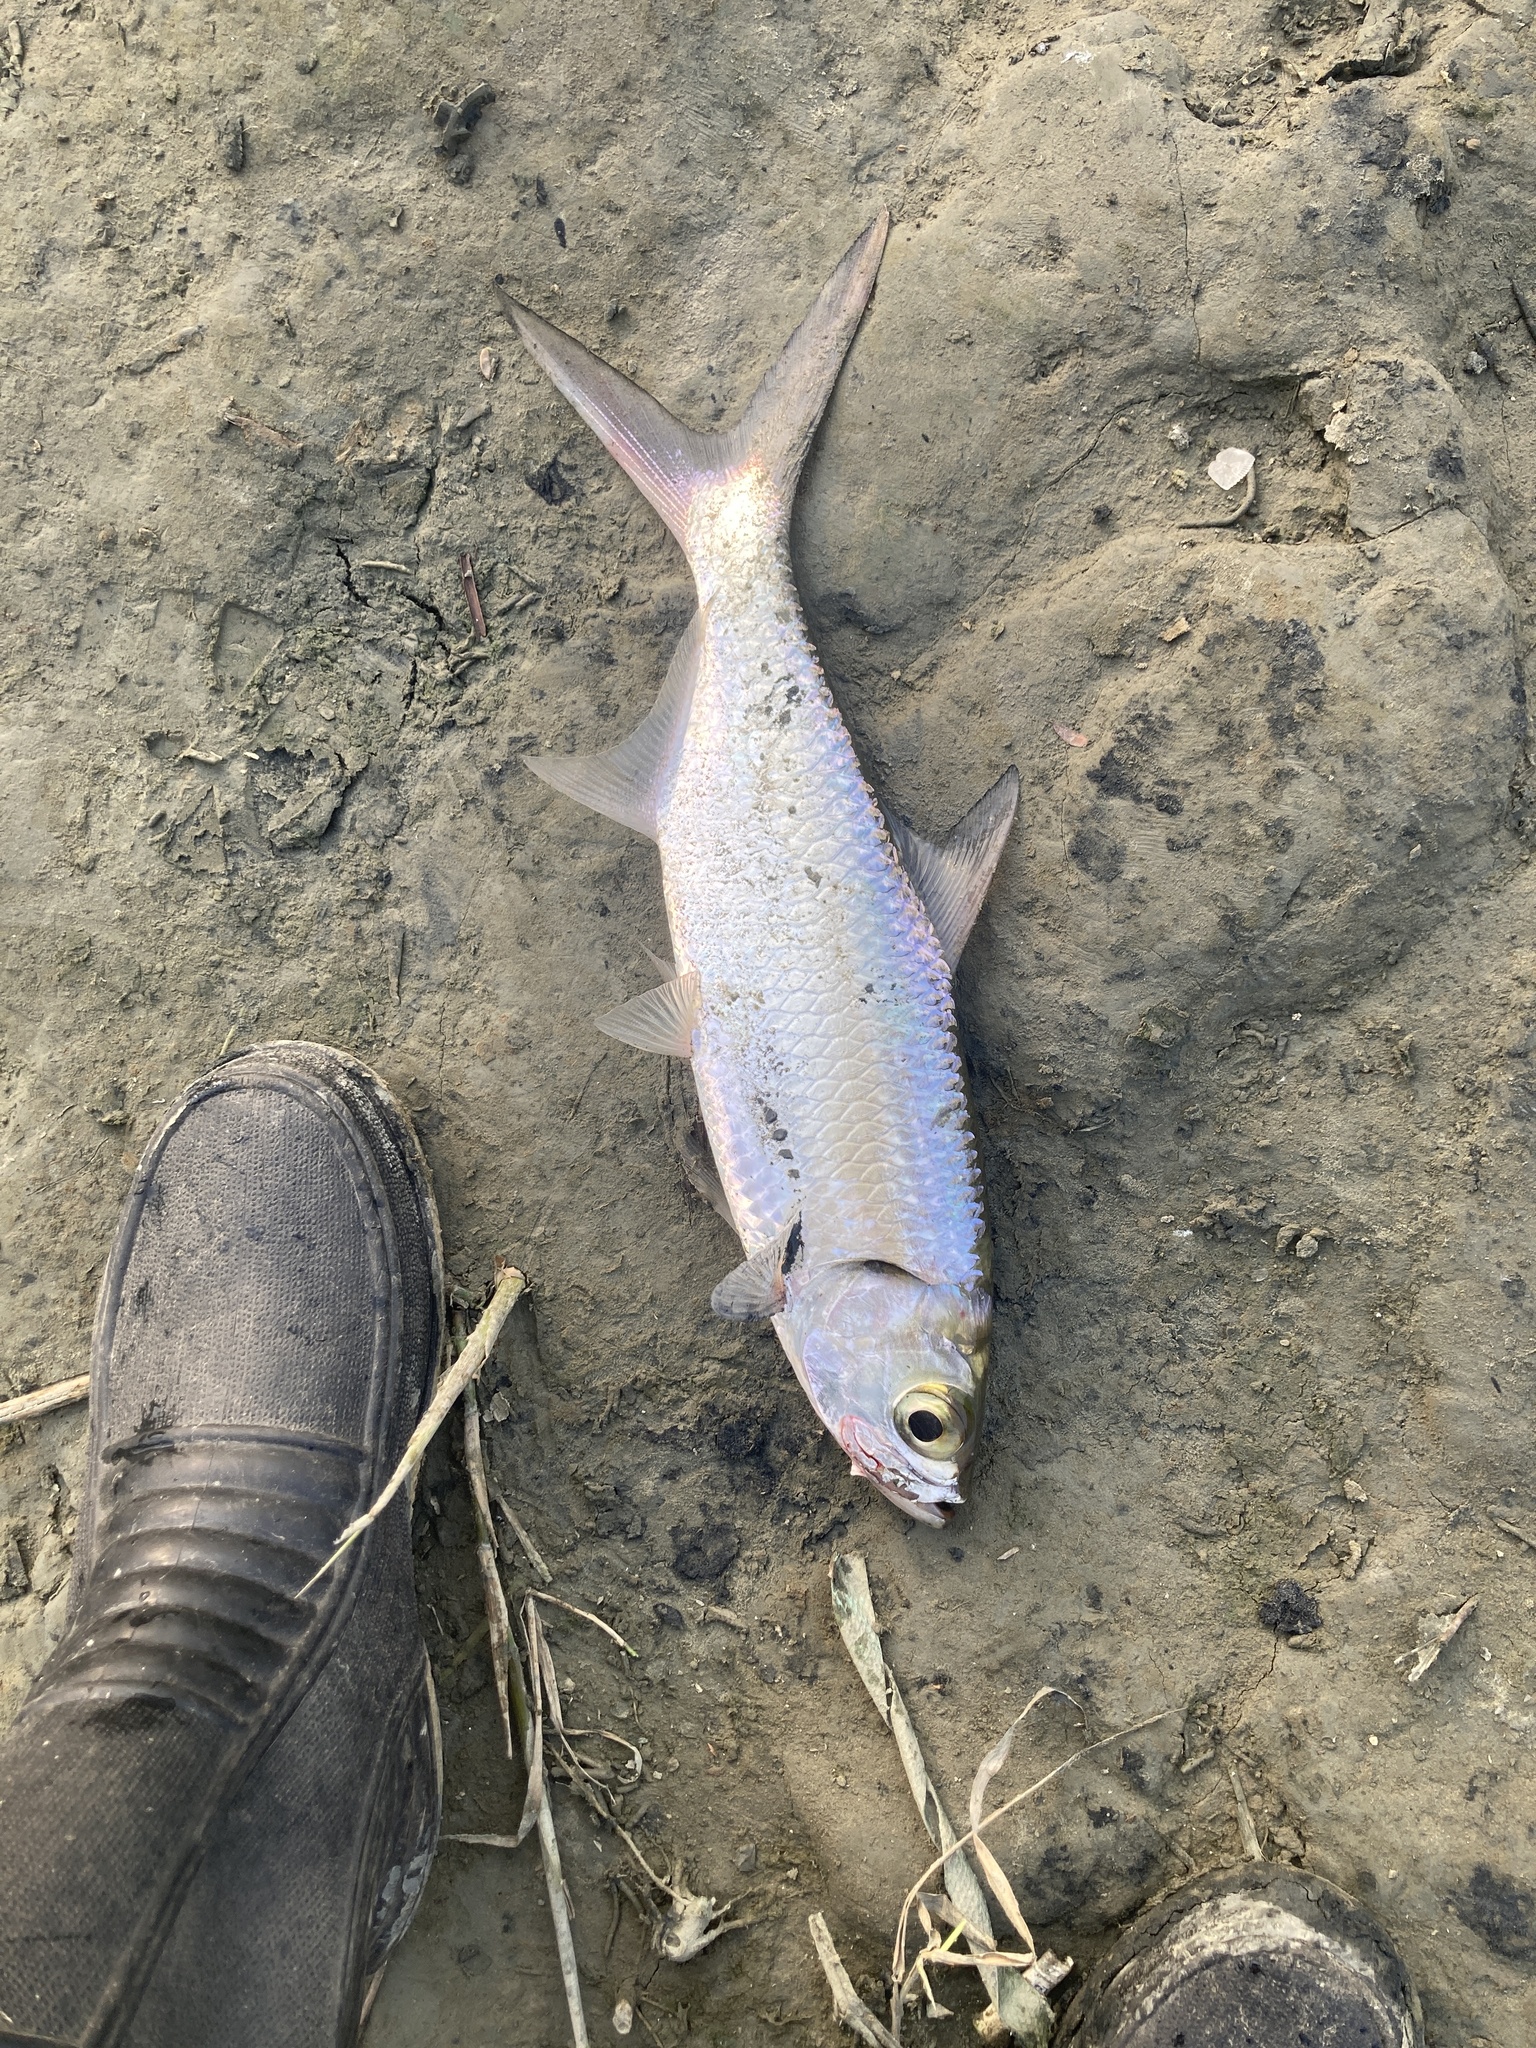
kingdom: Animalia
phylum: Chordata
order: Elopiformes
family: Megalopidae
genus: Megalops
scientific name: Megalops cyprinoides
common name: Indo-pacific tarpon
